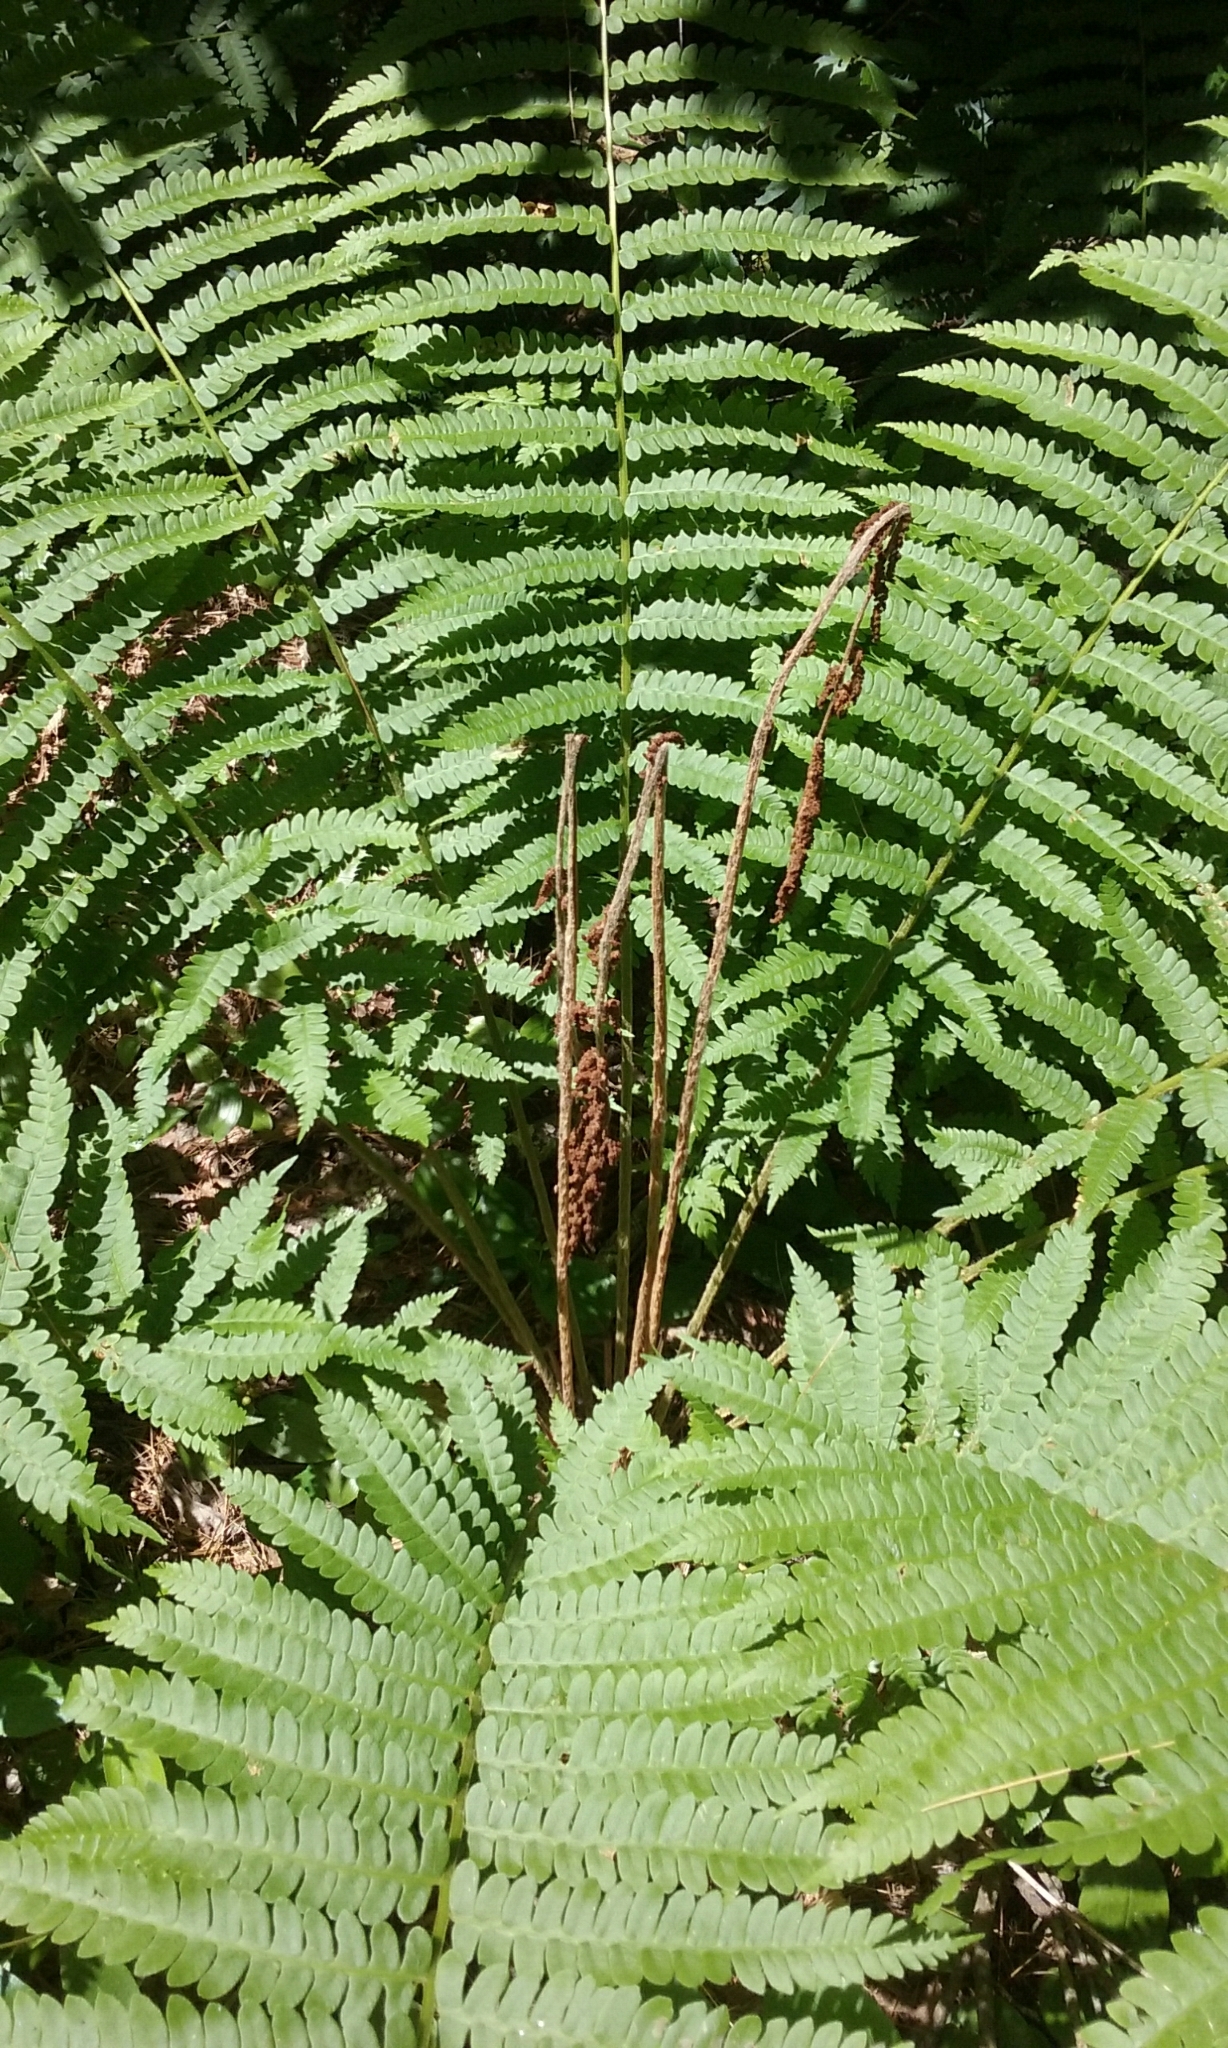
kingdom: Plantae
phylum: Tracheophyta
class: Polypodiopsida
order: Osmundales
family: Osmundaceae
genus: Osmundastrum
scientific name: Osmundastrum cinnamomeum
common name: Cinnamon fern
